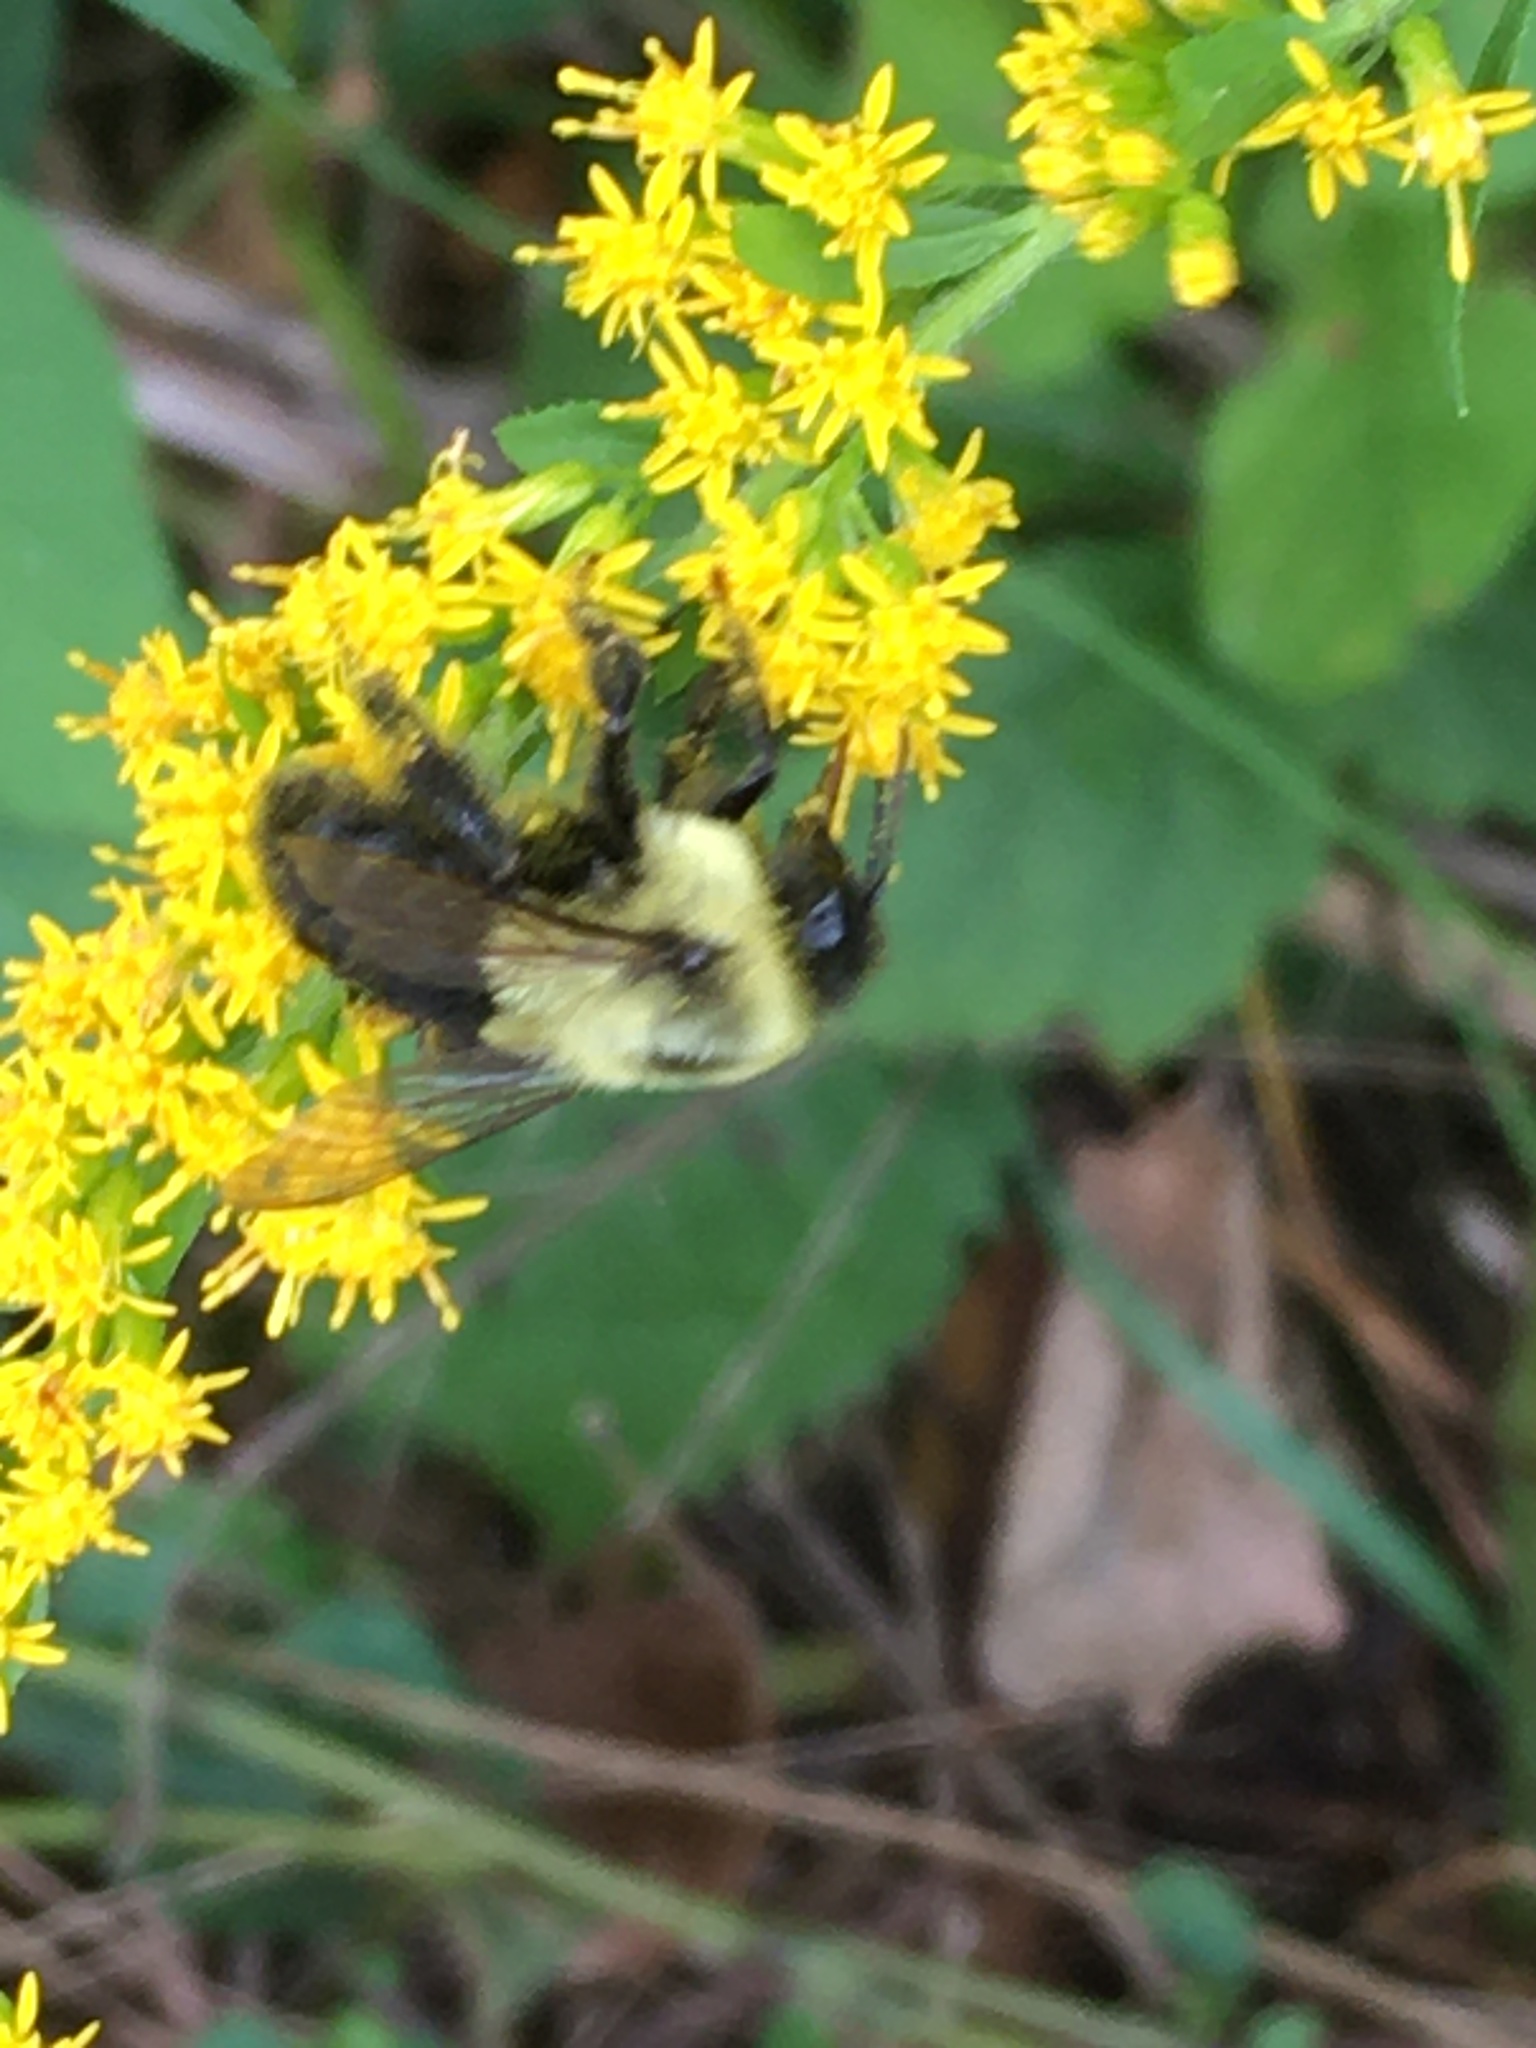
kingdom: Animalia
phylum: Arthropoda
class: Insecta
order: Hymenoptera
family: Apidae
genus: Bombus
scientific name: Bombus impatiens
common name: Common eastern bumble bee
